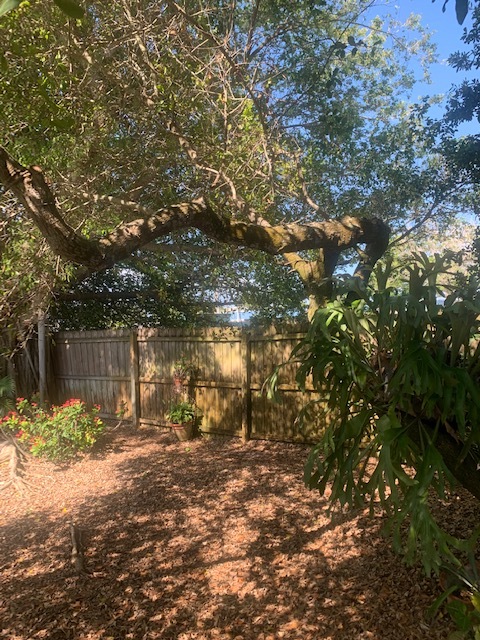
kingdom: Plantae
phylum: Tracheophyta
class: Magnoliopsida
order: Fagales
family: Fagaceae
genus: Quercus
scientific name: Quercus virginiana
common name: Southern live oak
